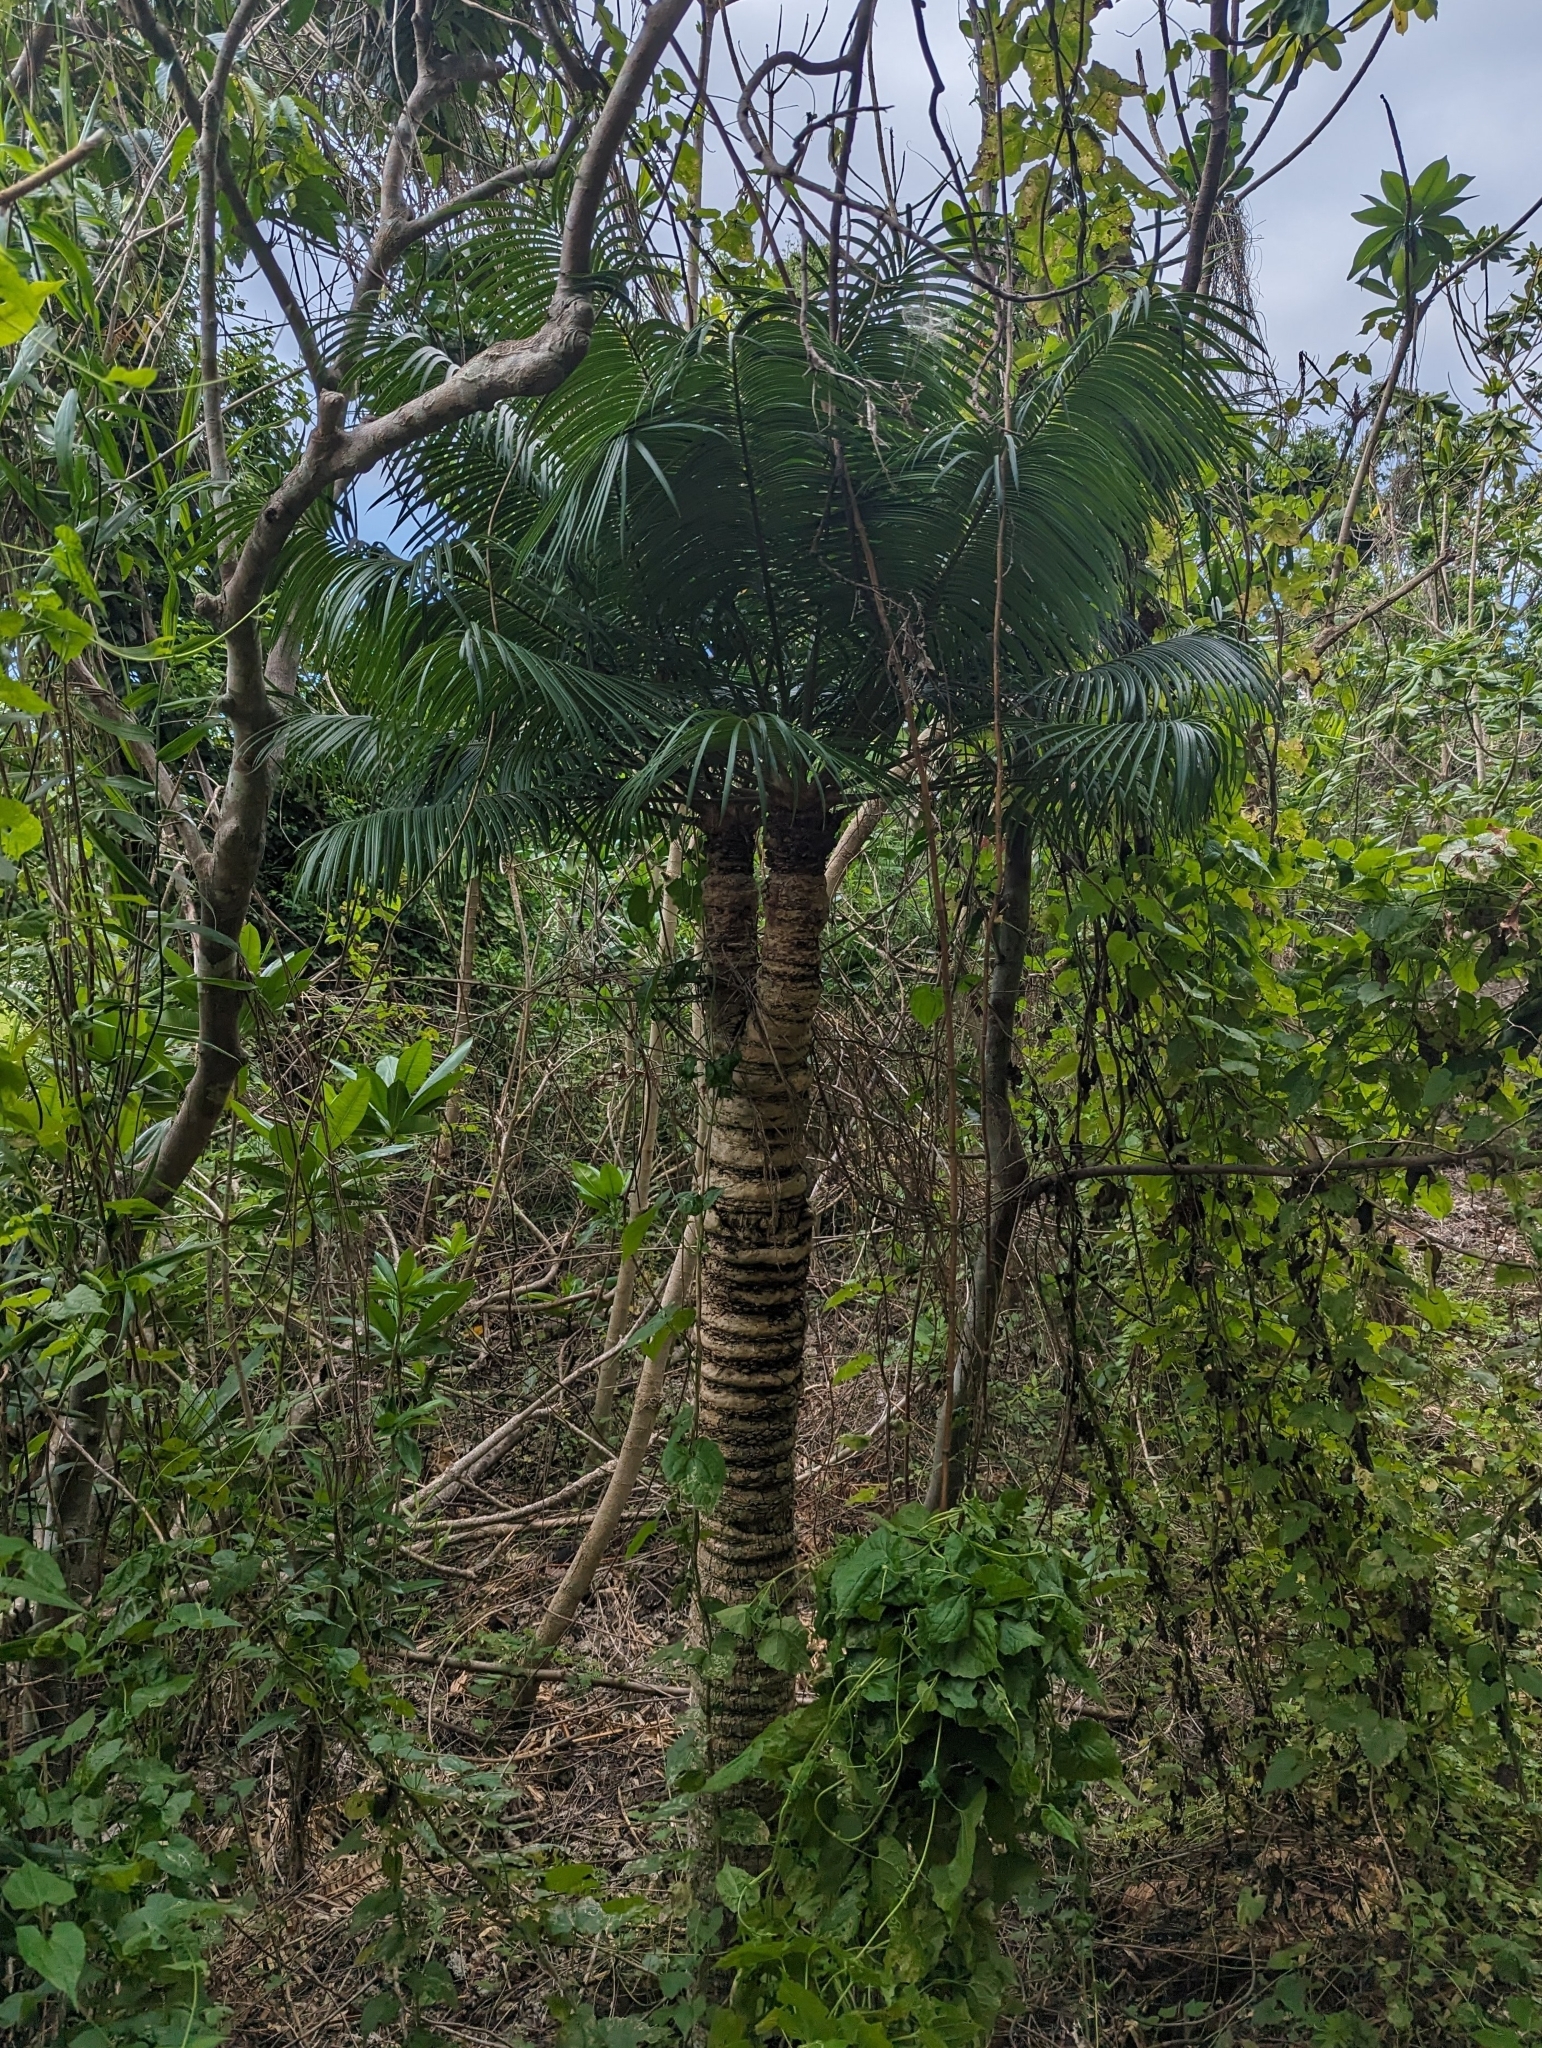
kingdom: Plantae
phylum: Tracheophyta
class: Cycadopsida
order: Cycadales
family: Cycadaceae
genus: Cycas
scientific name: Cycas micronesica
